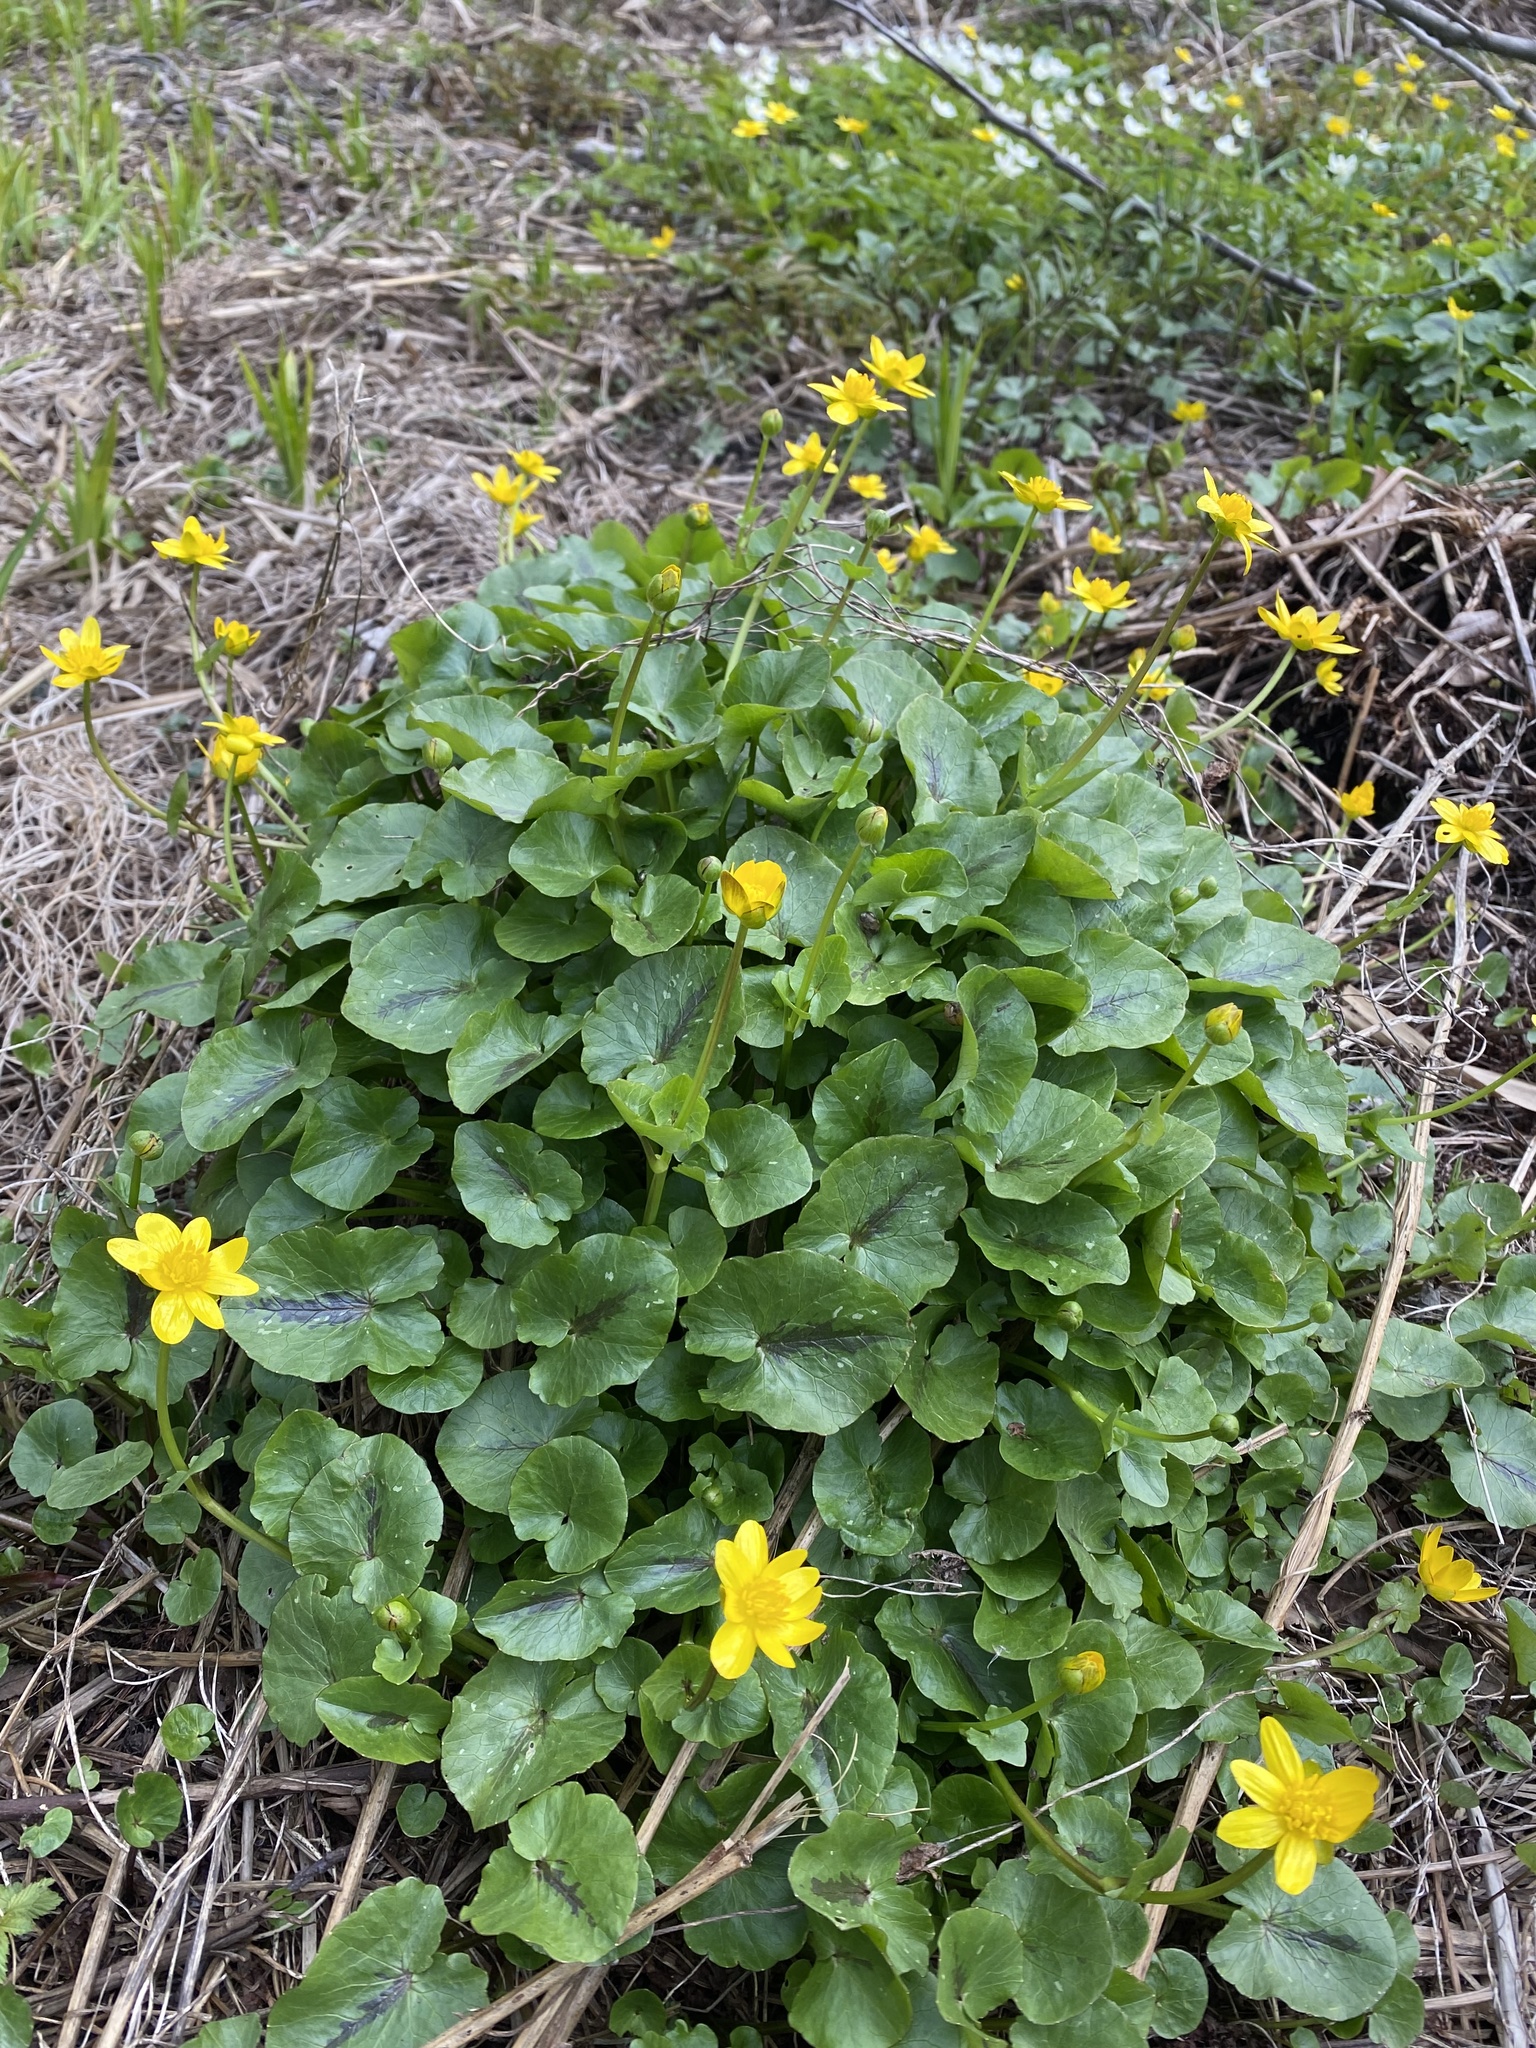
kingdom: Plantae
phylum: Tracheophyta
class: Magnoliopsida
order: Ranunculales
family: Ranunculaceae
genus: Ficaria
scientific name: Ficaria verna
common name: Lesser celandine
